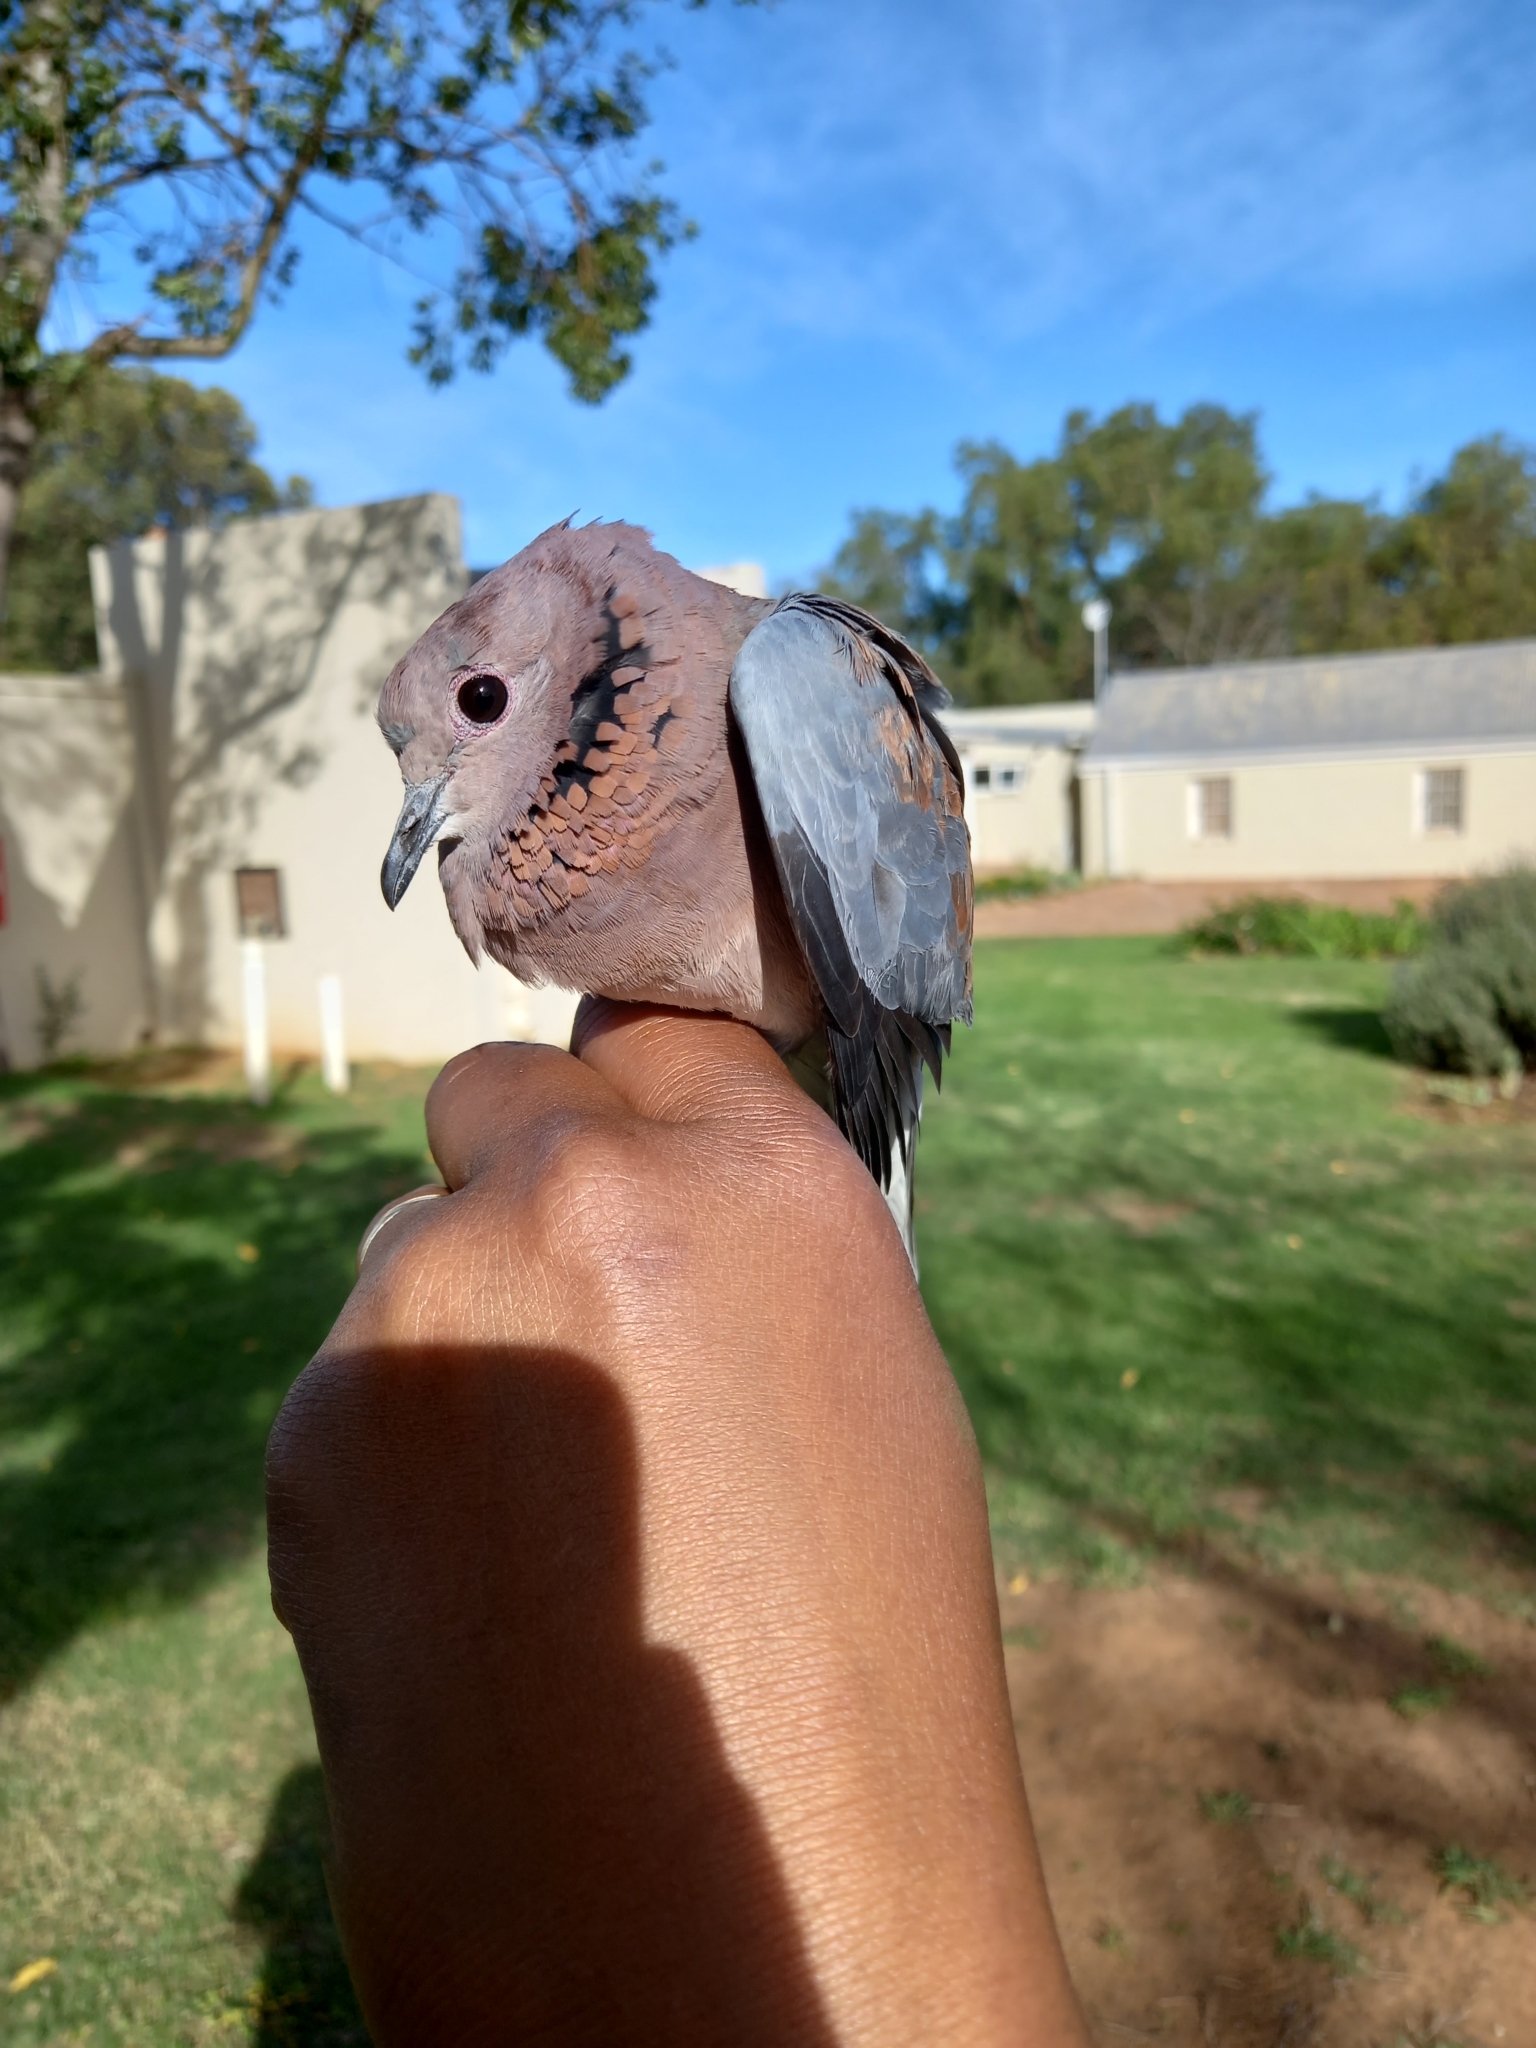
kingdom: Animalia
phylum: Chordata
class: Aves
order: Columbiformes
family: Columbidae
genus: Spilopelia
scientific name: Spilopelia senegalensis
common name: Laughing dove
